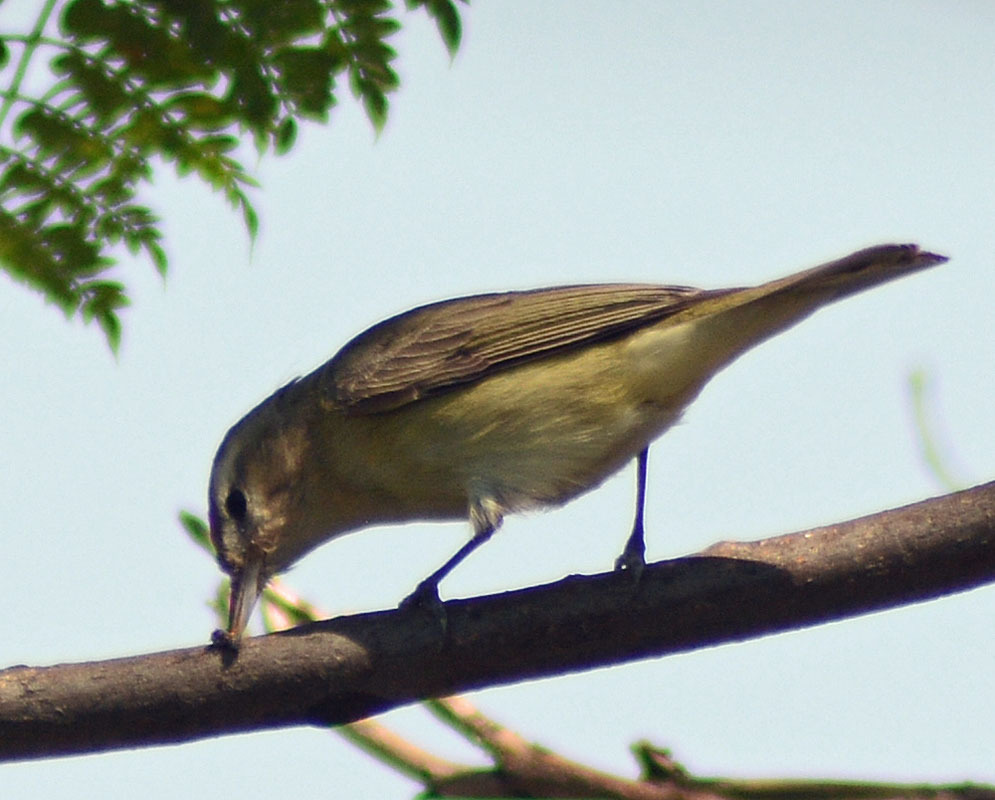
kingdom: Animalia
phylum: Chordata
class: Aves
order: Passeriformes
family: Vireonidae
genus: Vireo
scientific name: Vireo gilvus
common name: Warbling vireo
